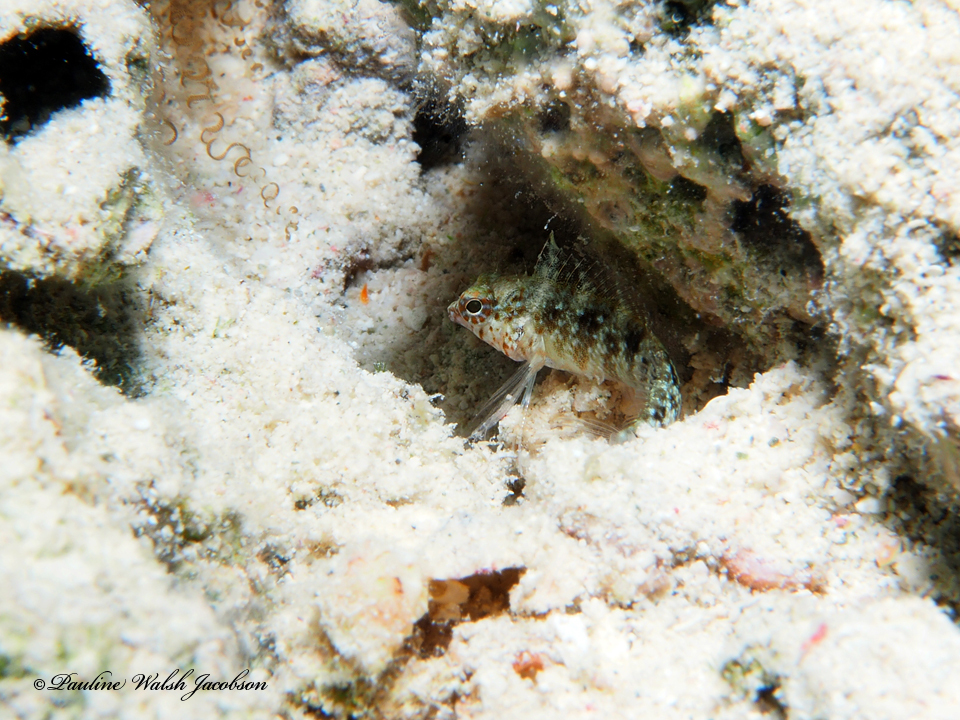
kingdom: Animalia
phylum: Chordata
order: Perciformes
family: Labrisomidae
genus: Malacoctenus
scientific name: Malacoctenus macropus
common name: Rosy blenny
